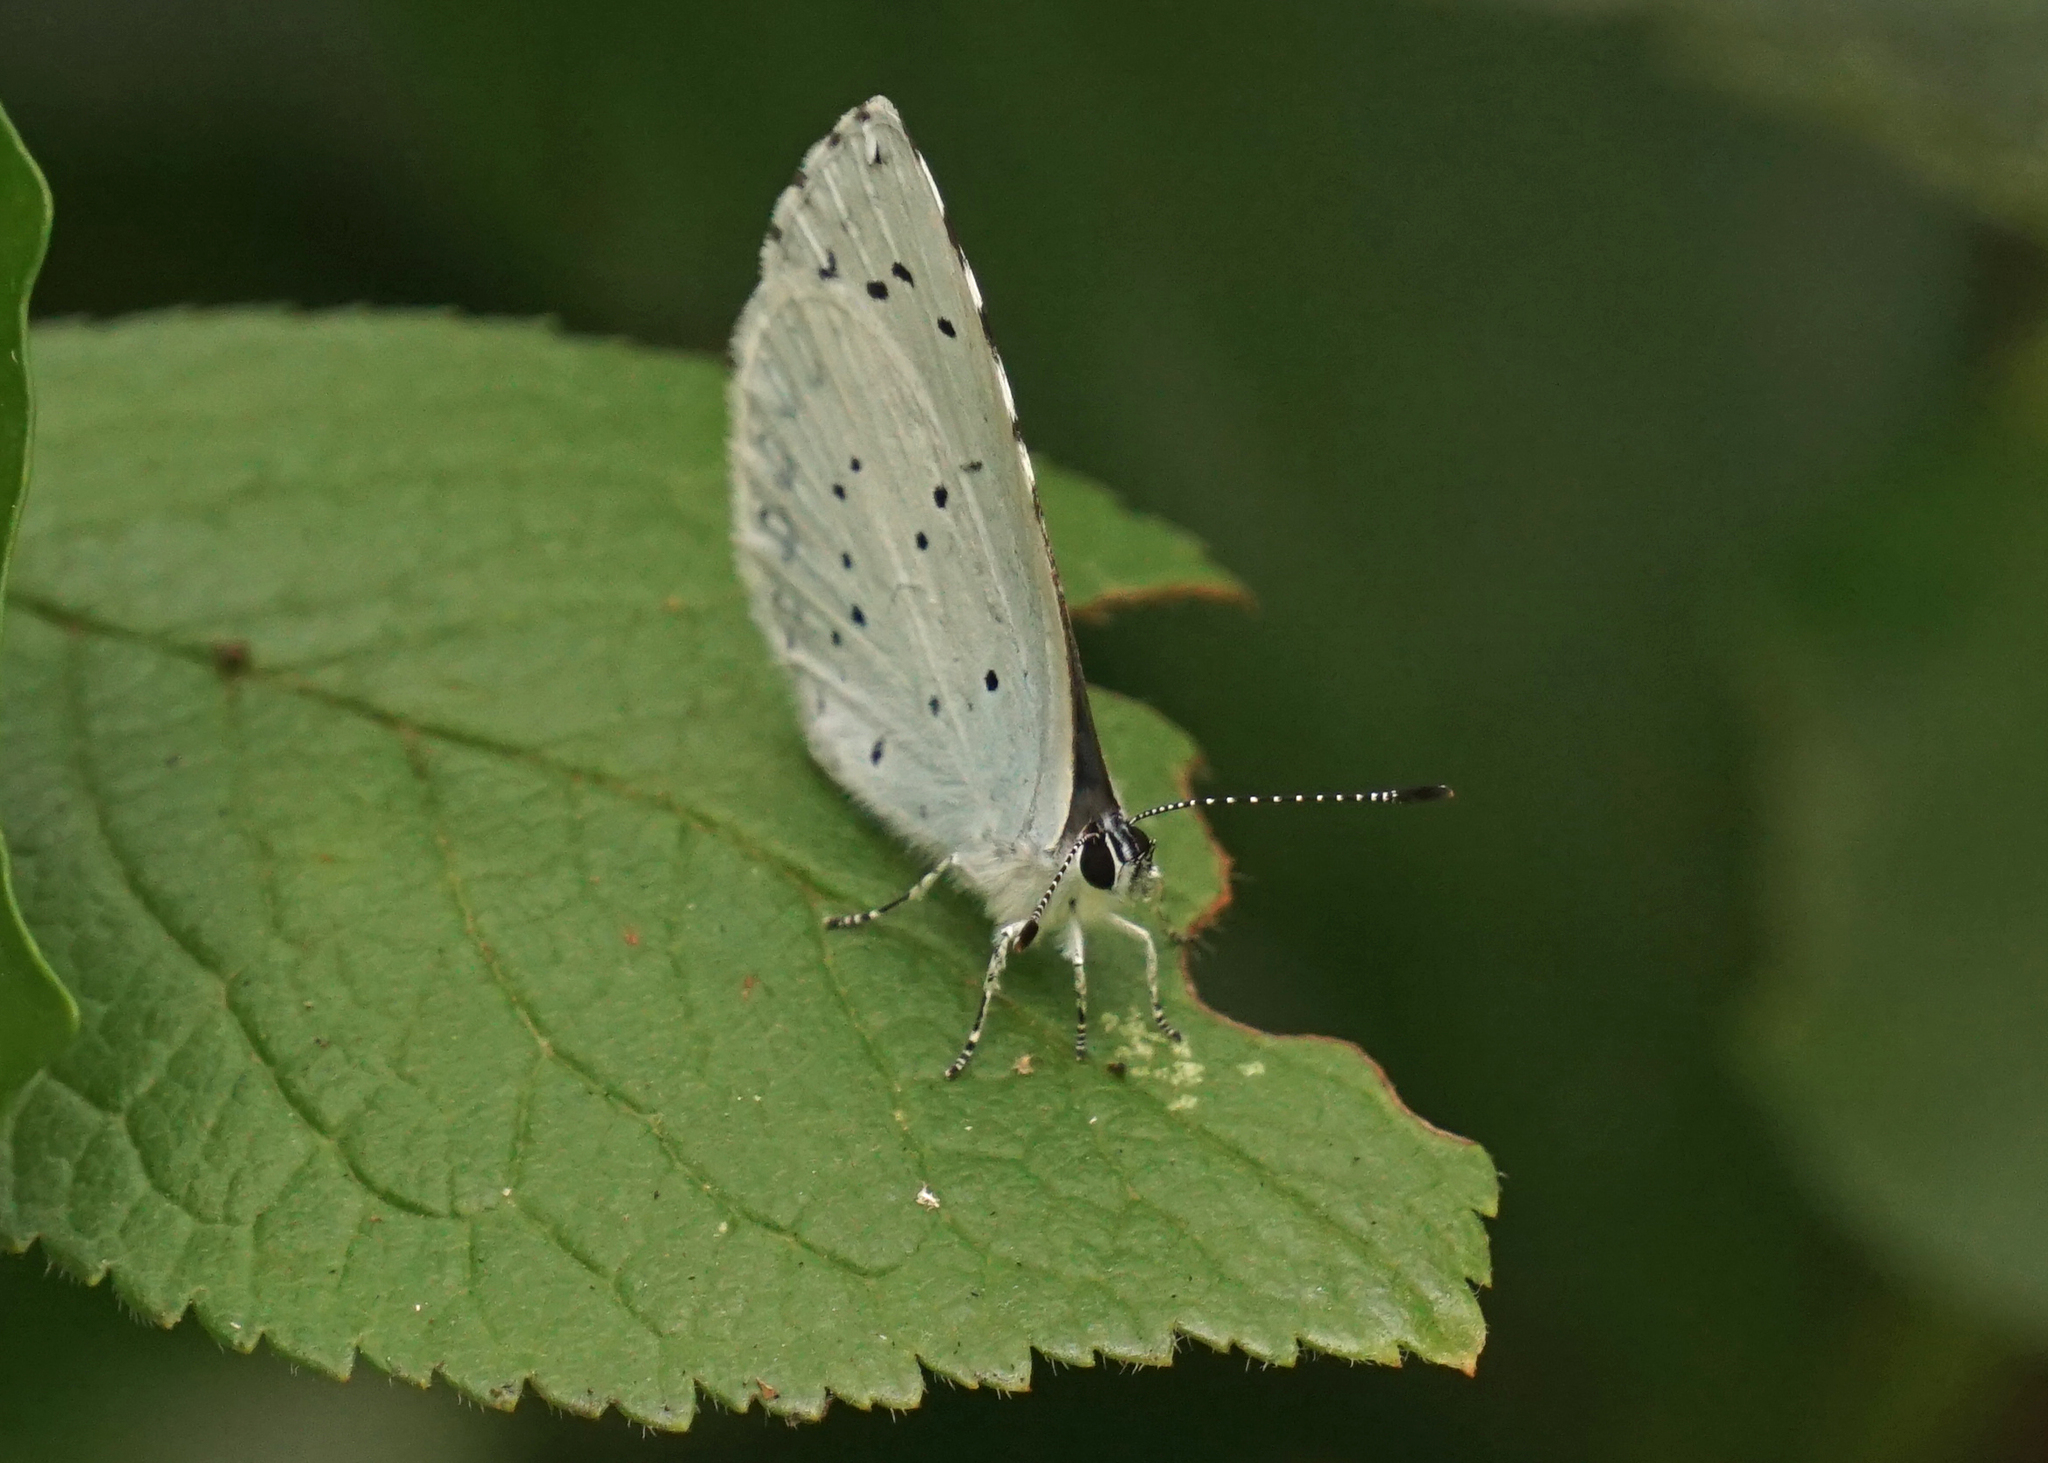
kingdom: Animalia
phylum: Arthropoda
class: Insecta
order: Lepidoptera
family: Lycaenidae
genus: Celastrina
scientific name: Celastrina argiolus
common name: Holly blue
